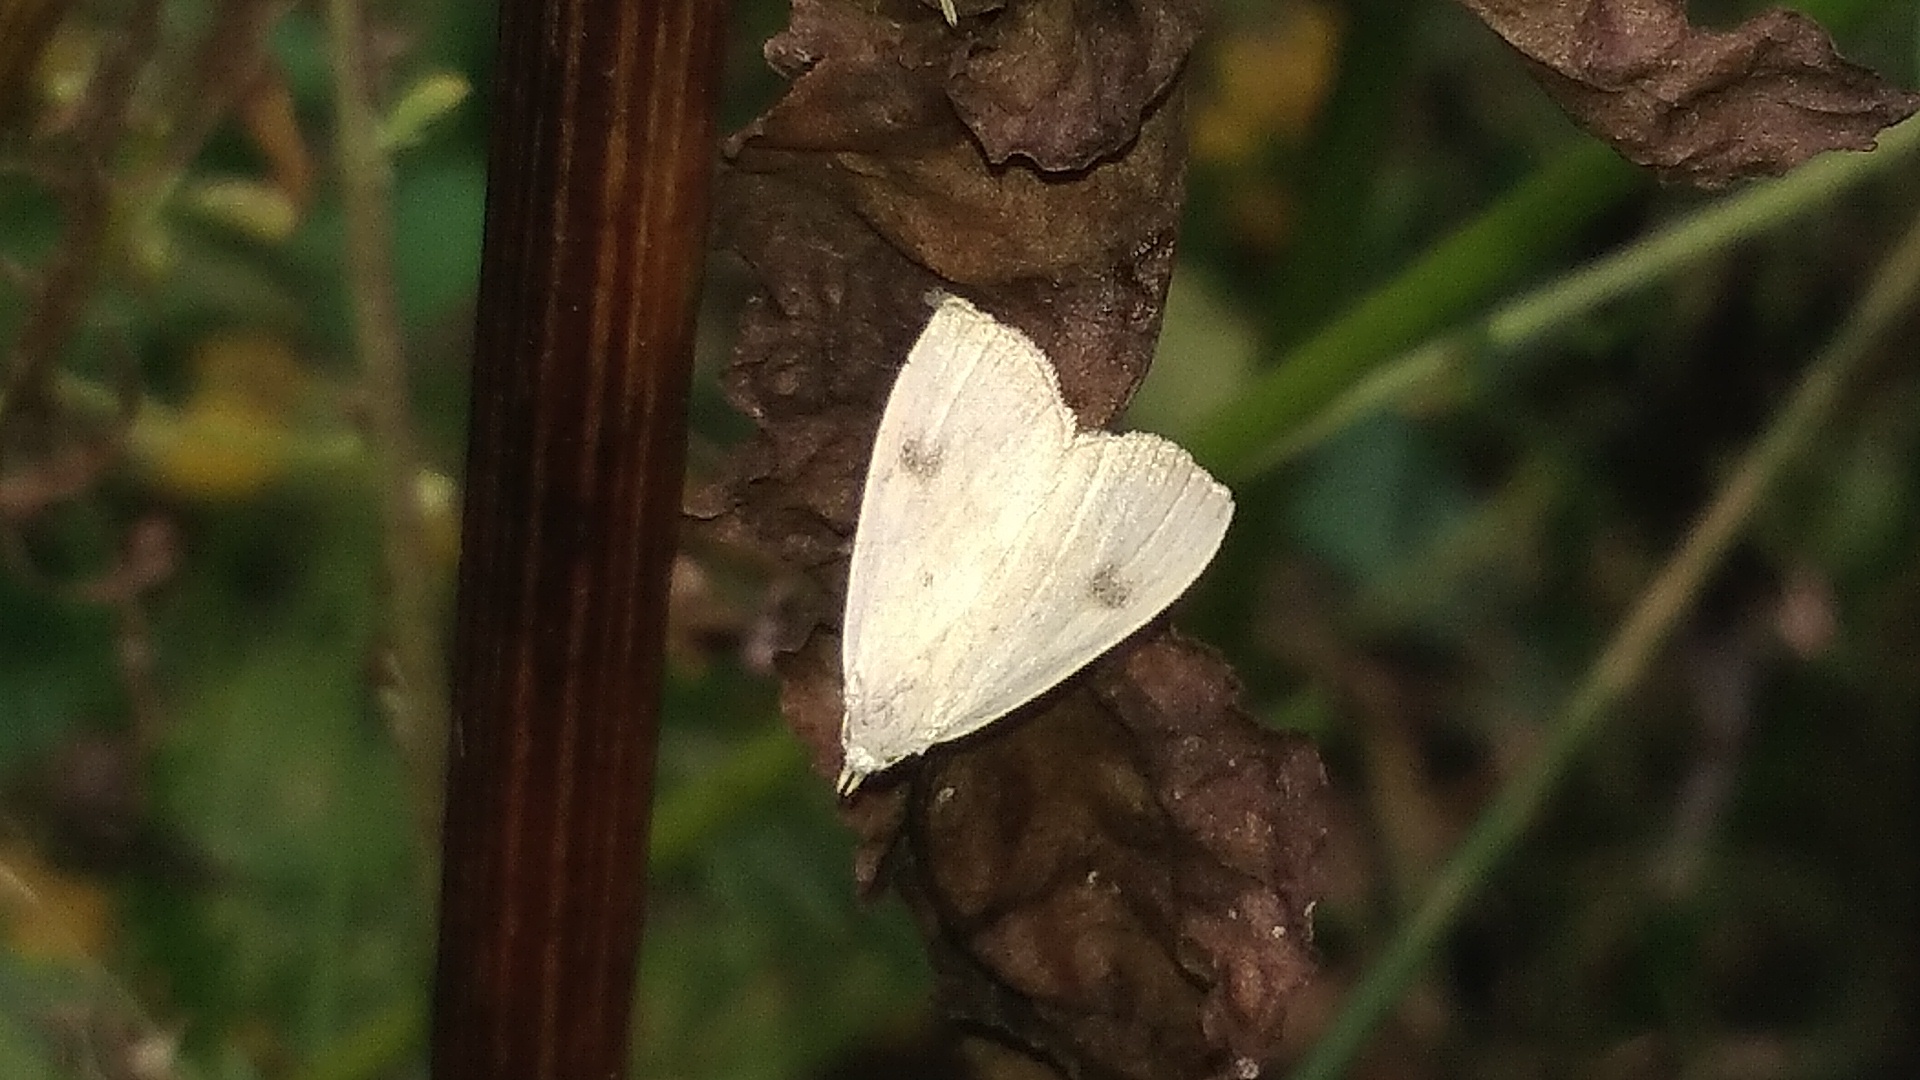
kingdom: Animalia
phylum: Arthropoda
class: Insecta
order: Lepidoptera
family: Erebidae
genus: Rivula
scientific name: Rivula sericealis
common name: Straw dot
